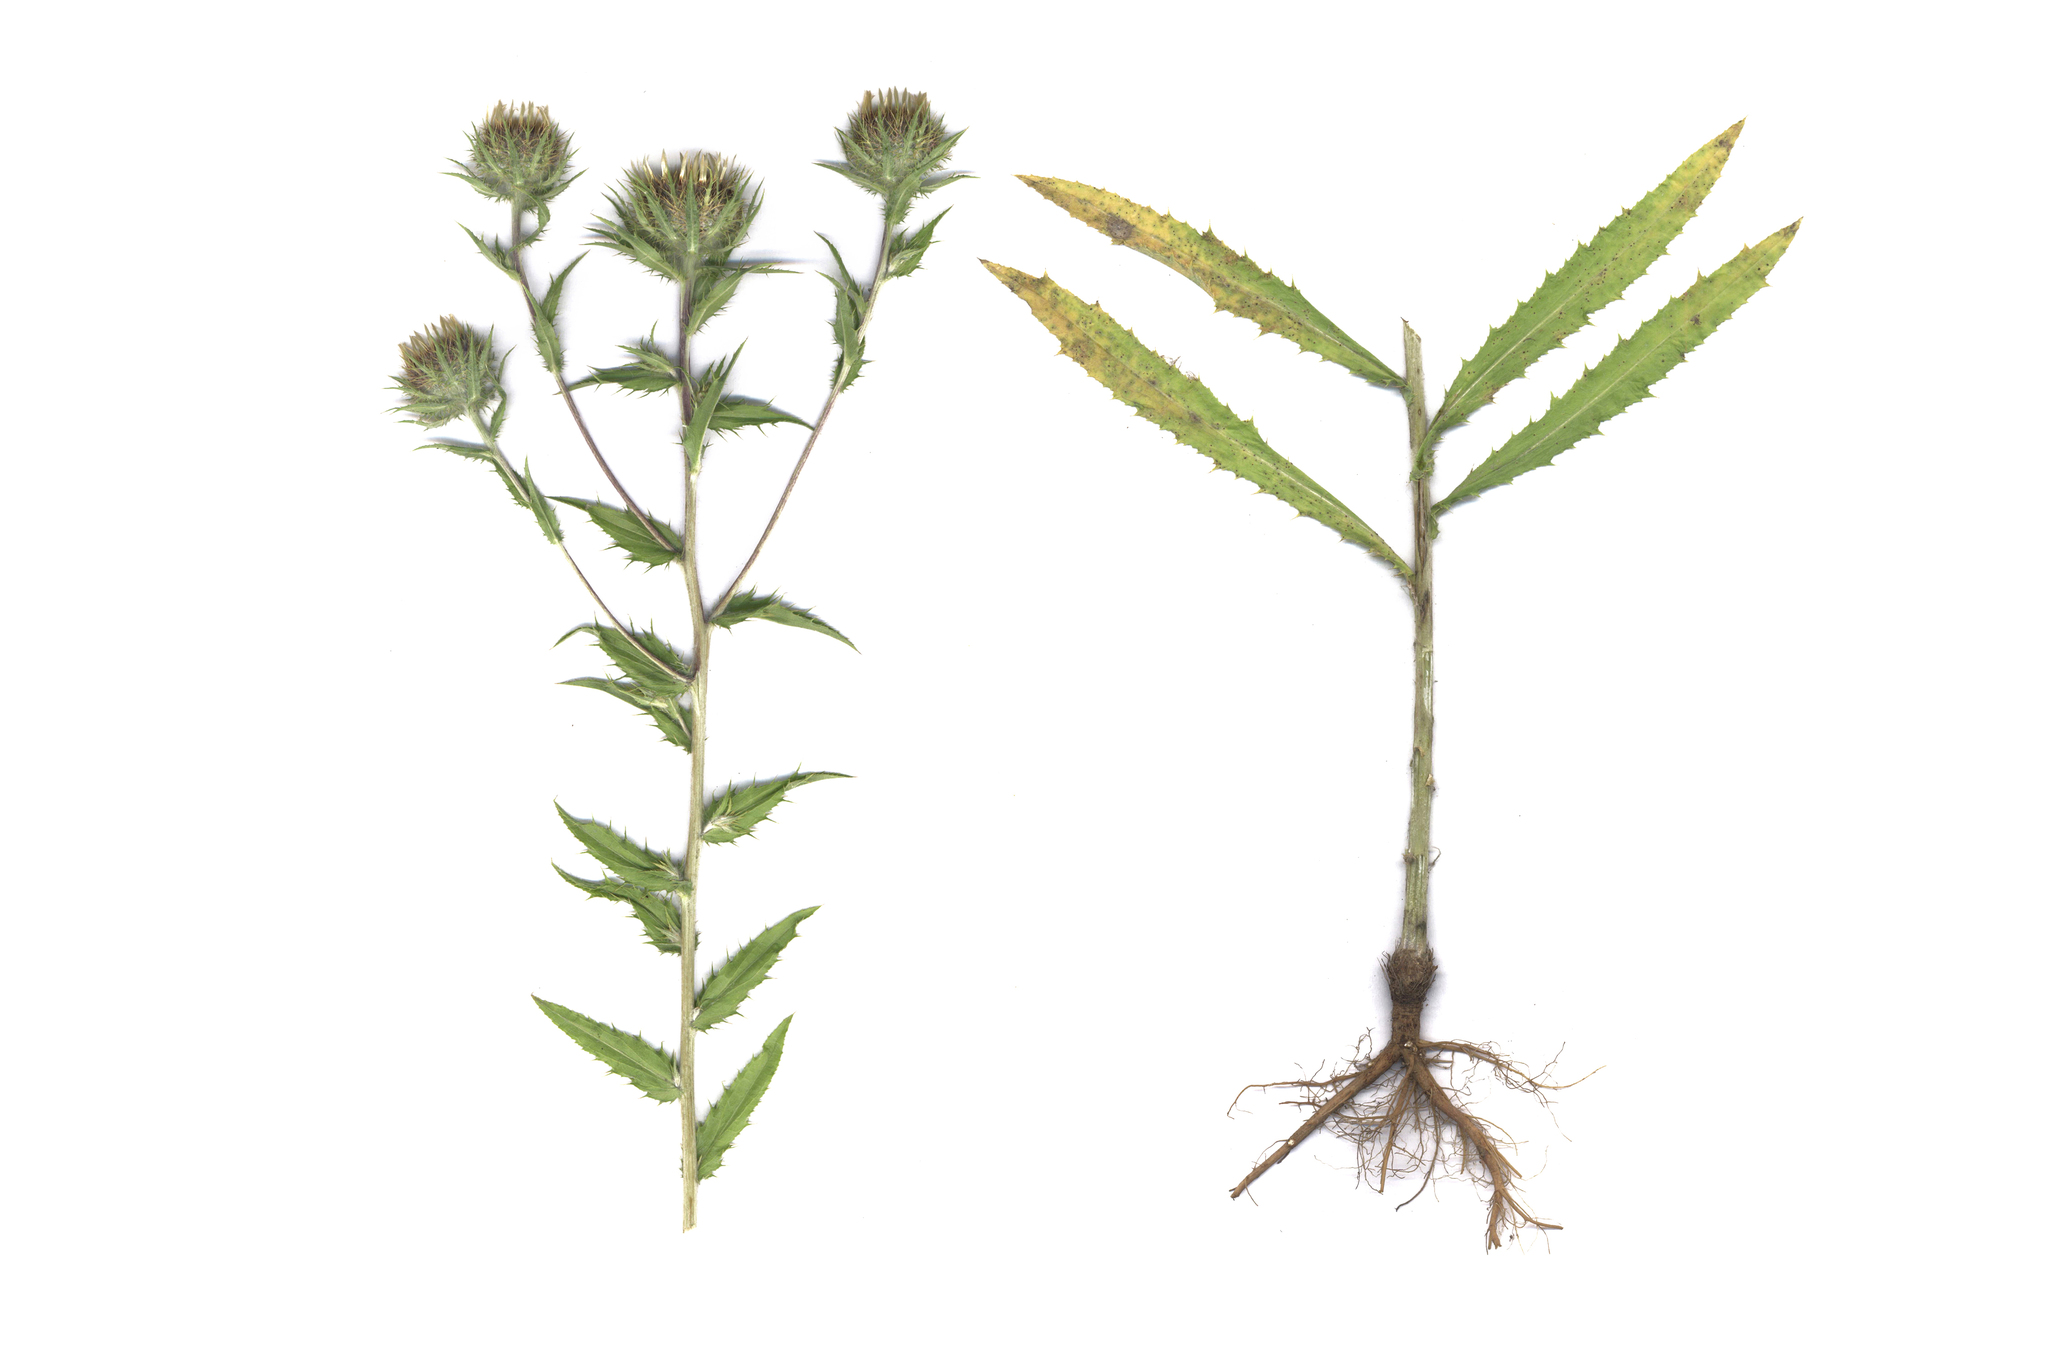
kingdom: Plantae
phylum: Tracheophyta
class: Magnoliopsida
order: Asterales
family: Asteraceae
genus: Carlina
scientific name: Carlina biebersteinii
